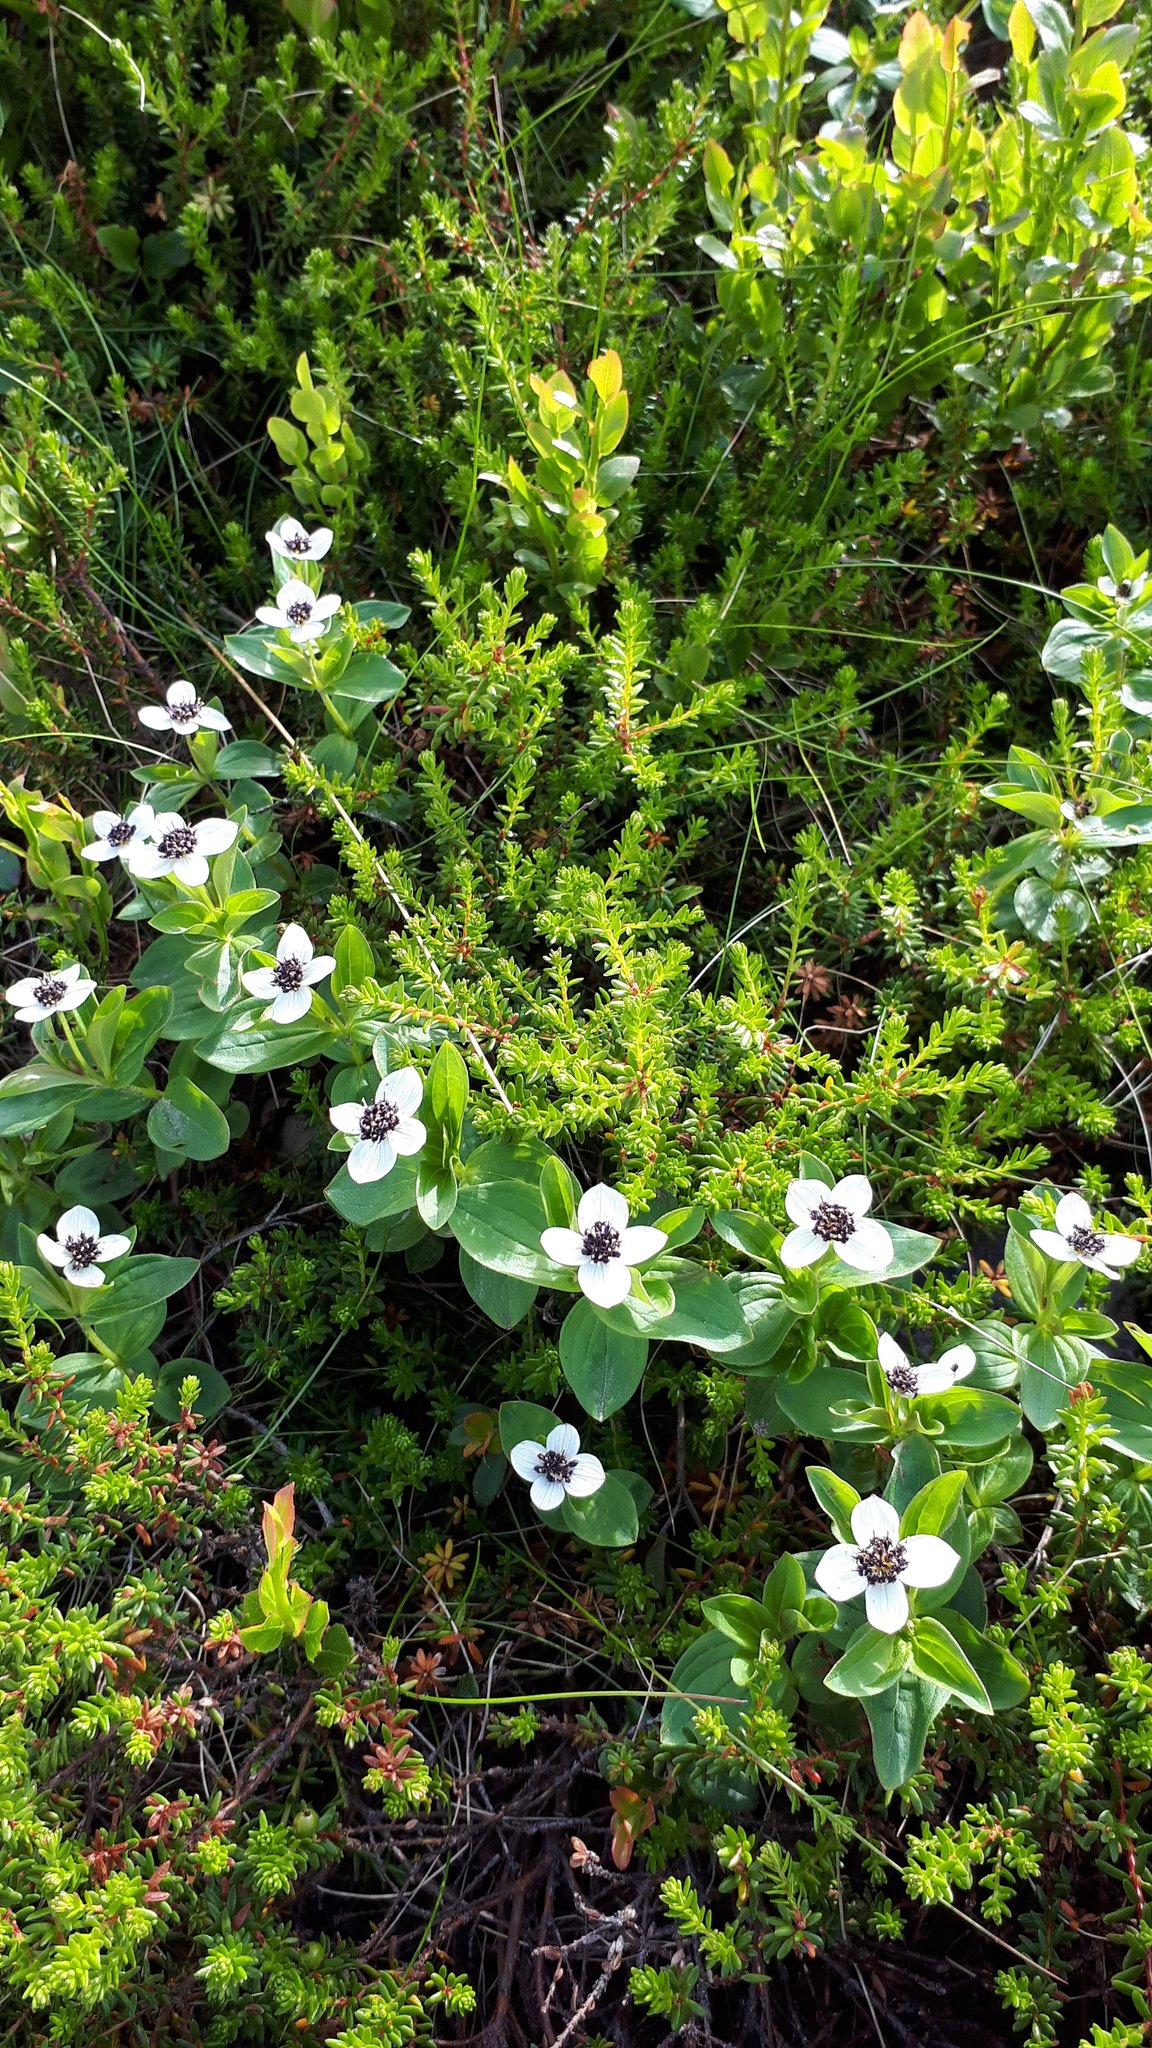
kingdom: Plantae
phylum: Tracheophyta
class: Magnoliopsida
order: Cornales
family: Cornaceae
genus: Cornus
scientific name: Cornus suecica
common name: Dwarf cornel
